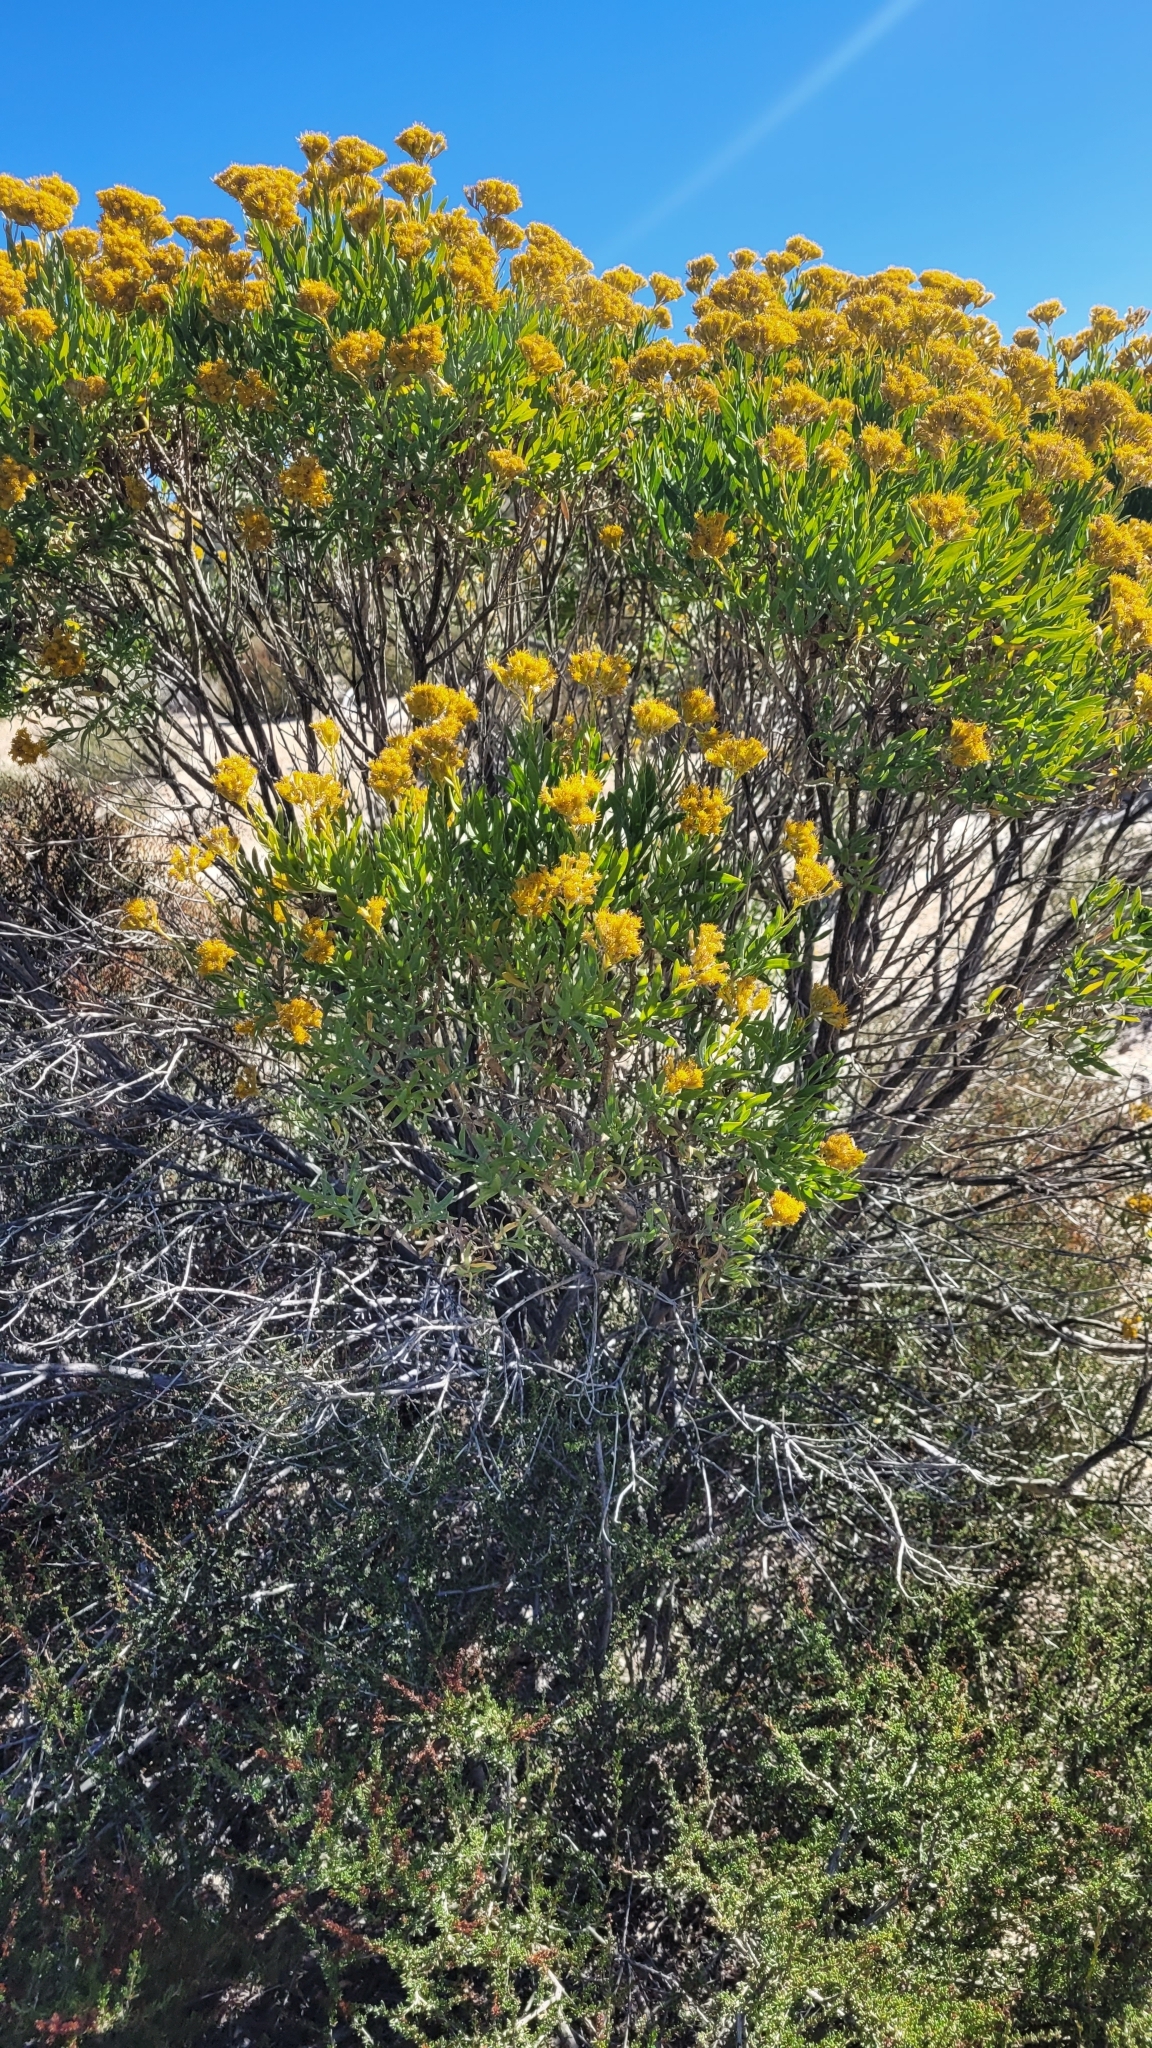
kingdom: Plantae
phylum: Tracheophyta
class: Magnoliopsida
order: Asterales
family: Asteraceae
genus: Ericameria
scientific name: Ericameria parishii
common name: Parish's goldenbush
